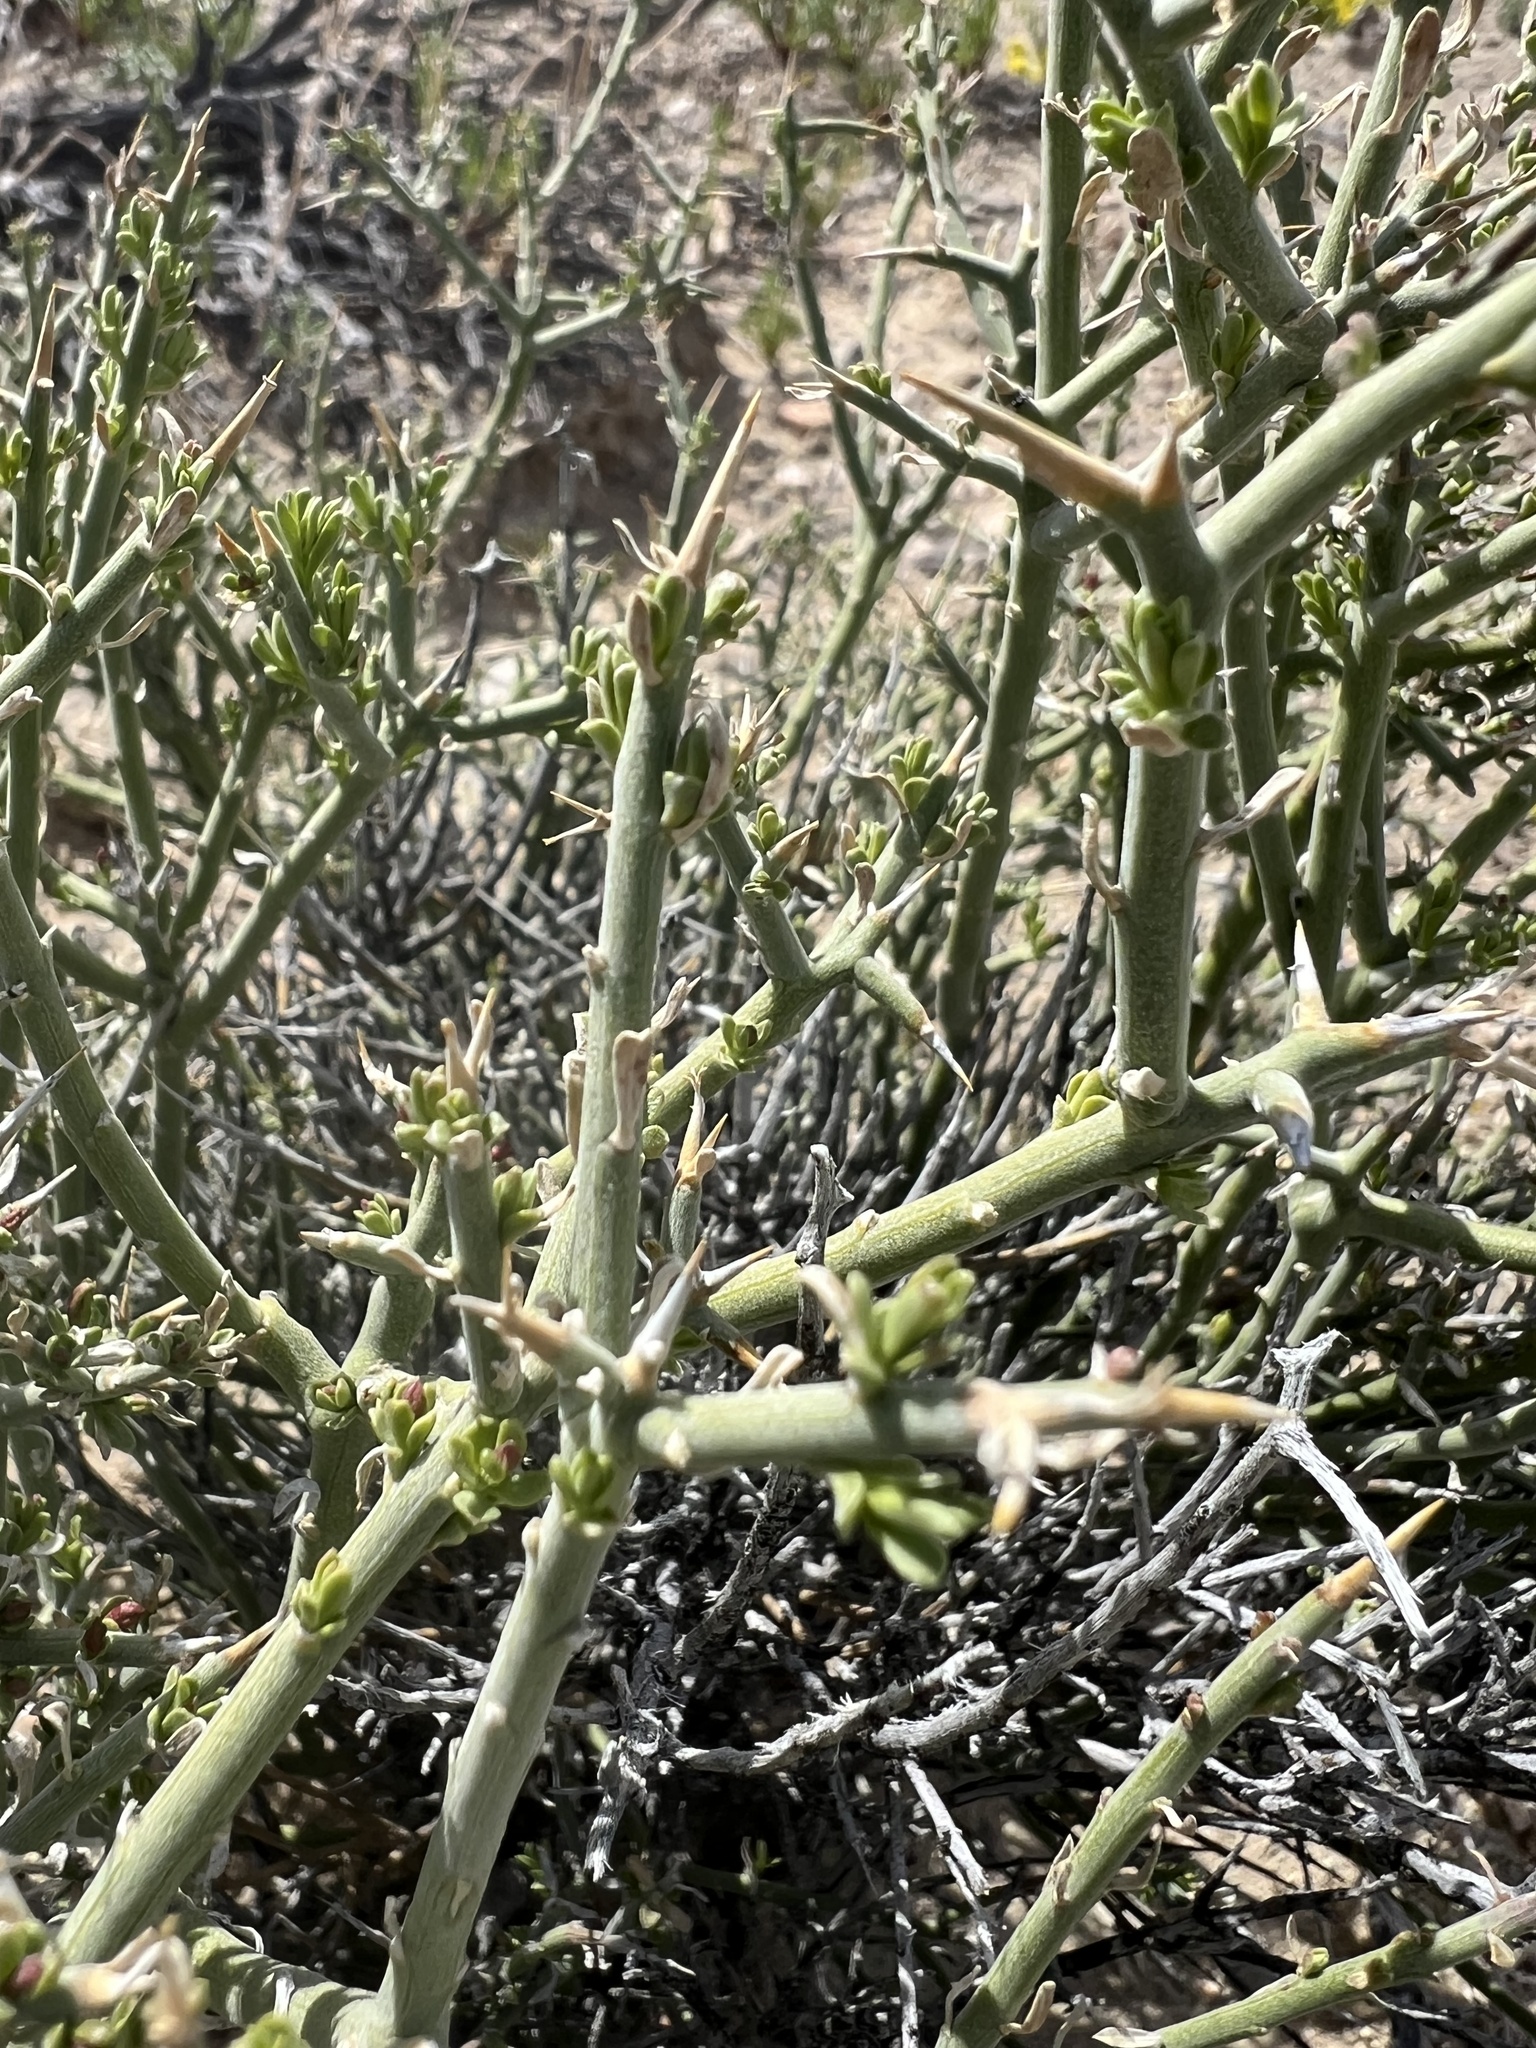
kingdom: Plantae
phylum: Tracheophyta
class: Magnoliopsida
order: Lamiales
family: Oleaceae
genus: Menodora
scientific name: Menodora spinescens
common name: Spiny menodora
